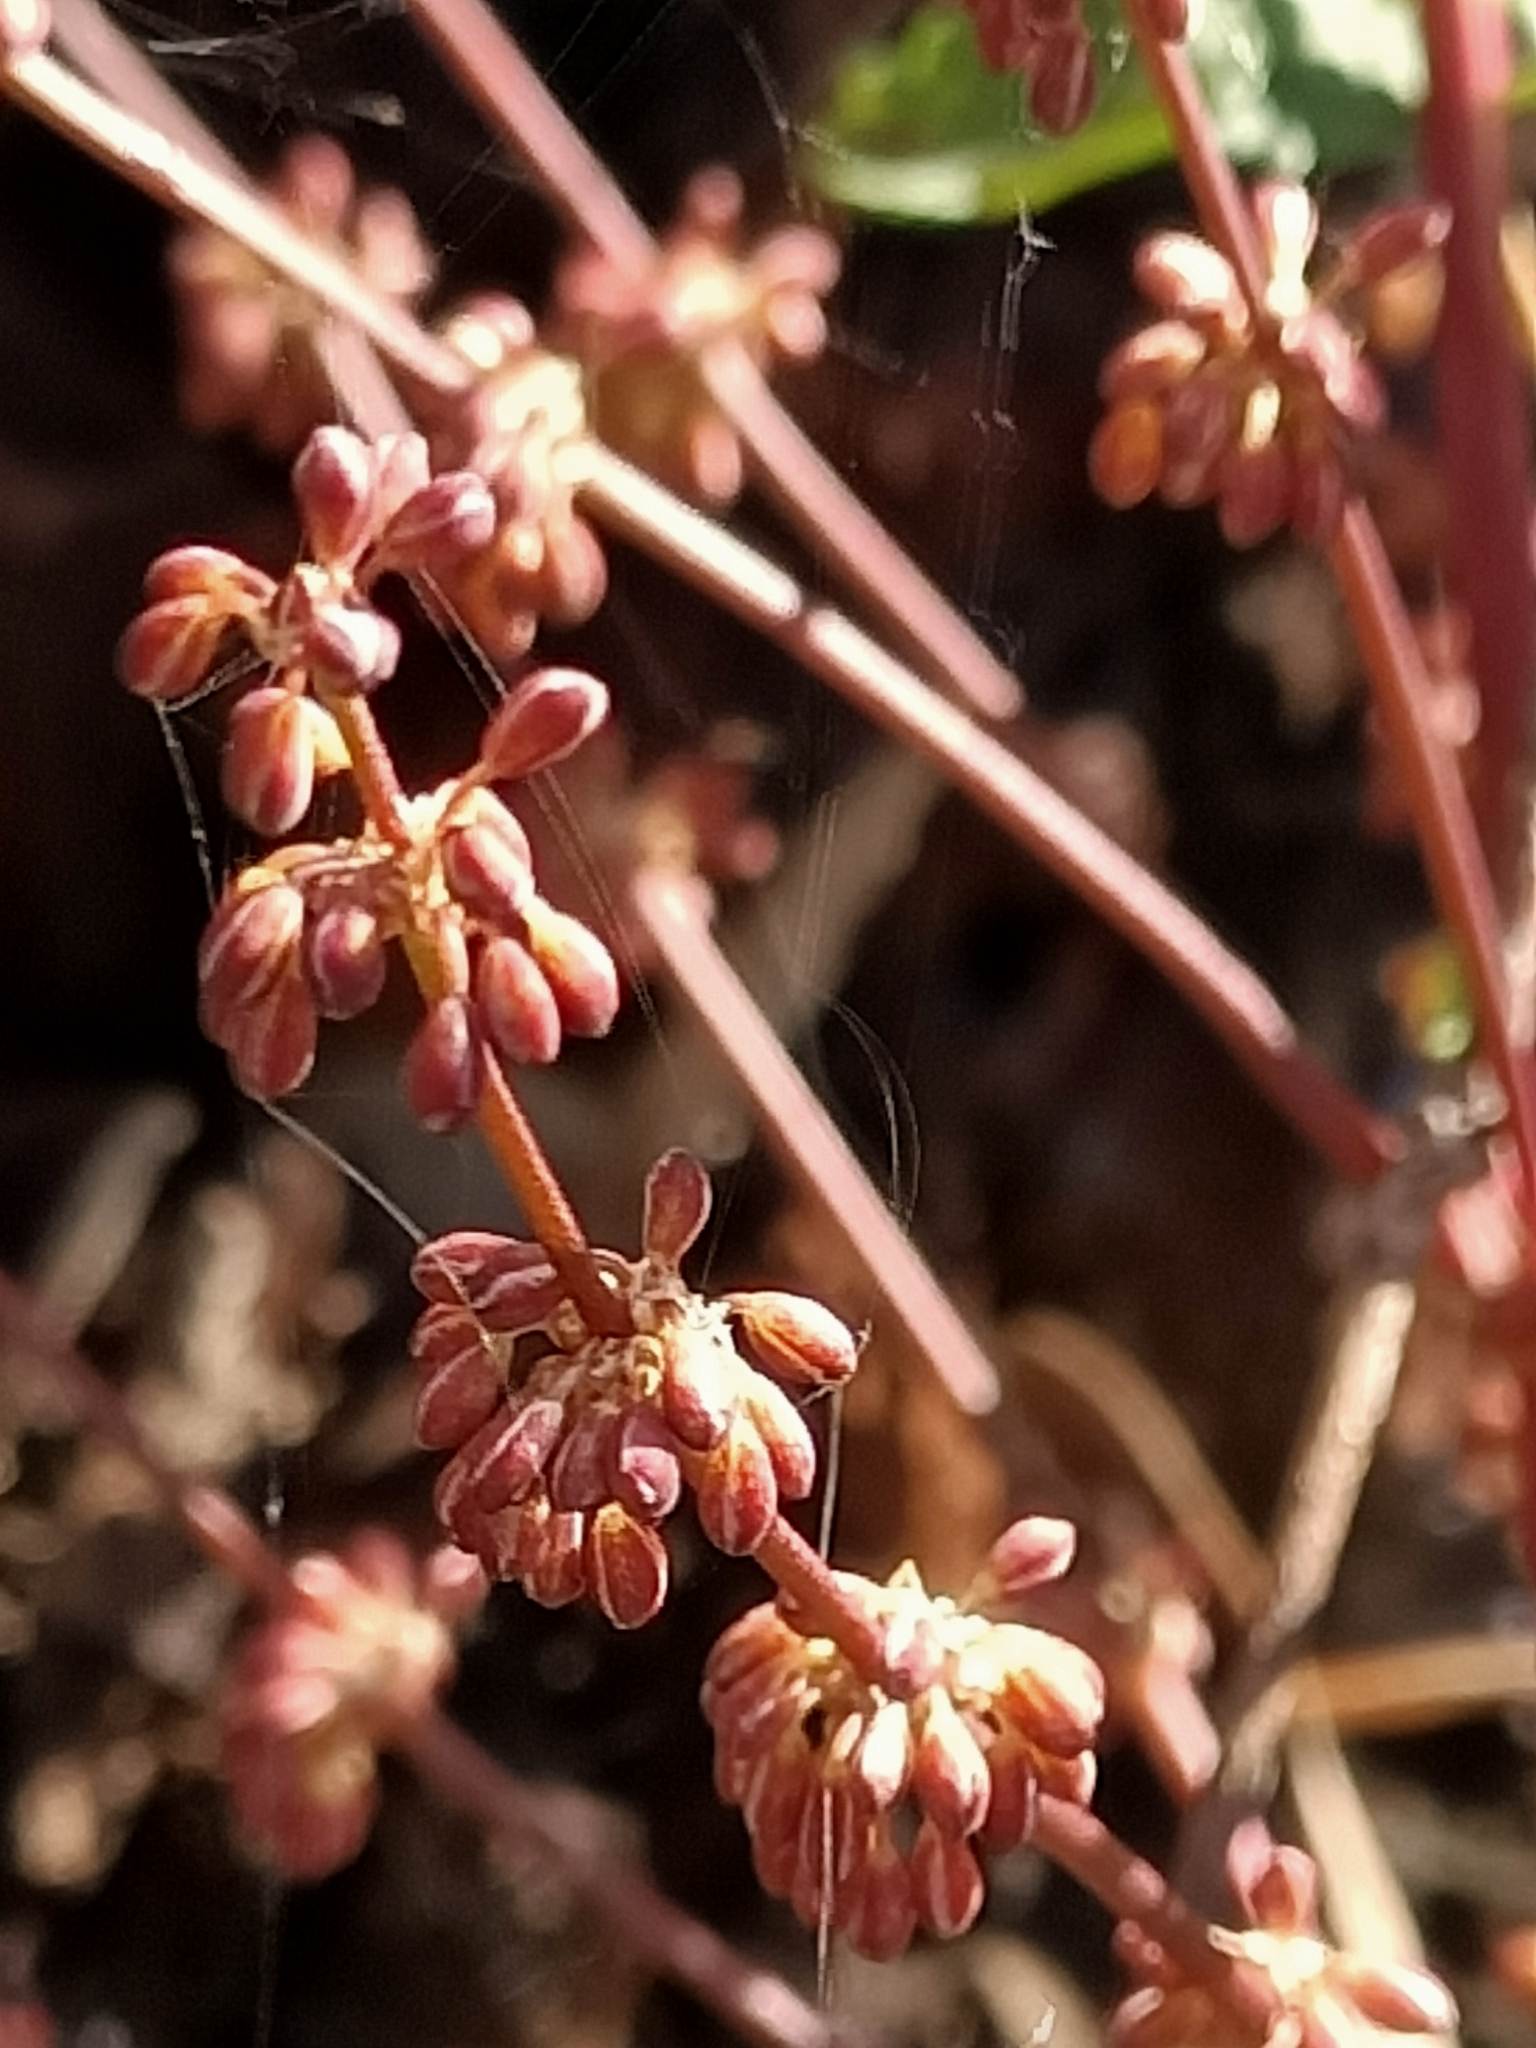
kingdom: Plantae
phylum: Tracheophyta
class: Liliopsida
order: Asparagales
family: Asparagaceae
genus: Lomandra
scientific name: Lomandra multiflora
